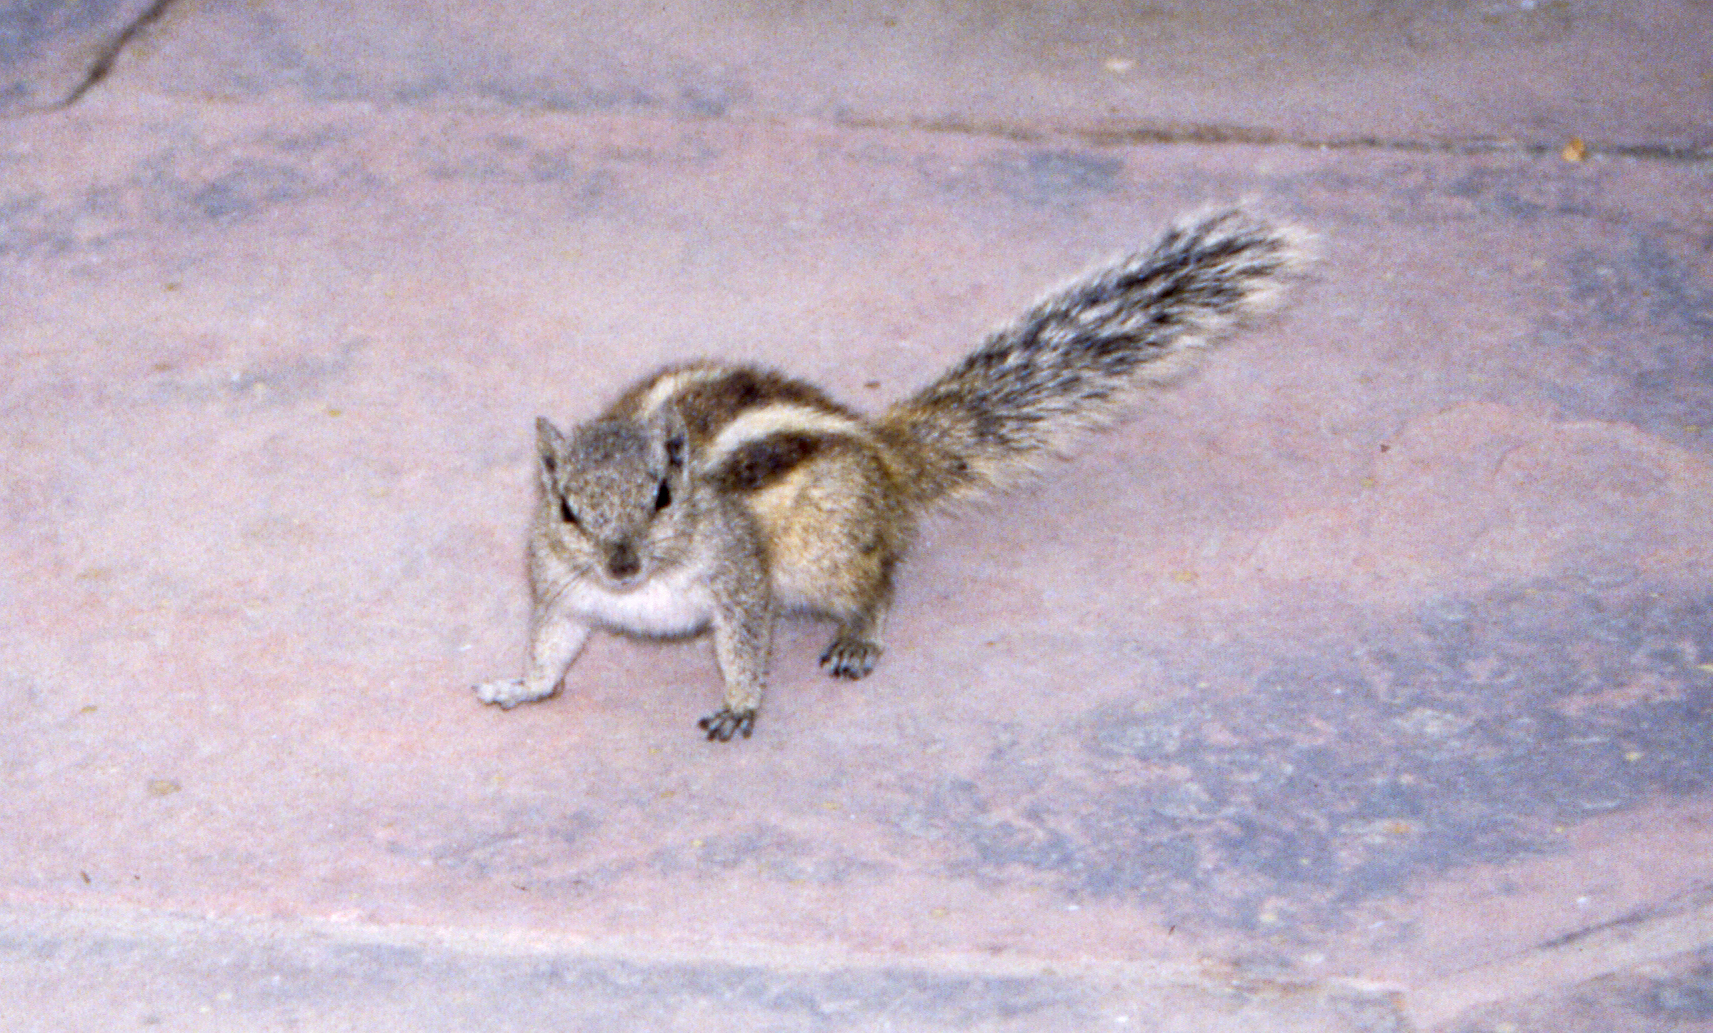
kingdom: Animalia
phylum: Chordata
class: Mammalia
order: Rodentia
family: Sciuridae
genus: Funambulus
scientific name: Funambulus pennantii
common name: Northern palm squirrel
